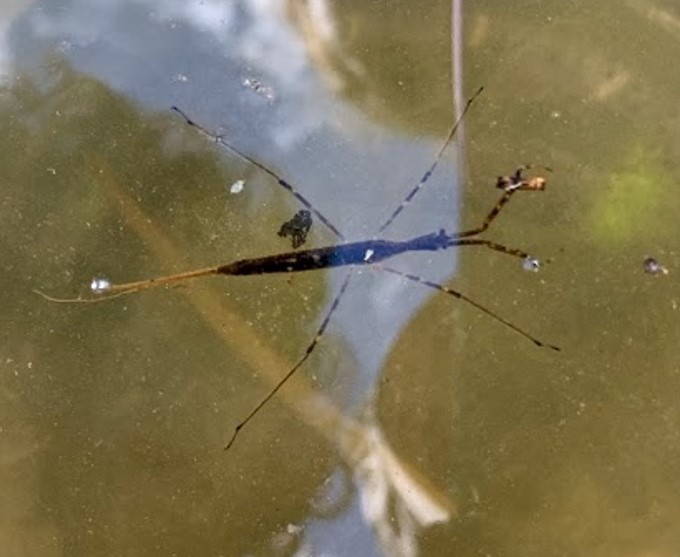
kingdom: Animalia
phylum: Arthropoda
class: Insecta
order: Hemiptera
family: Nepidae
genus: Ranatra
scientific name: Ranatra
